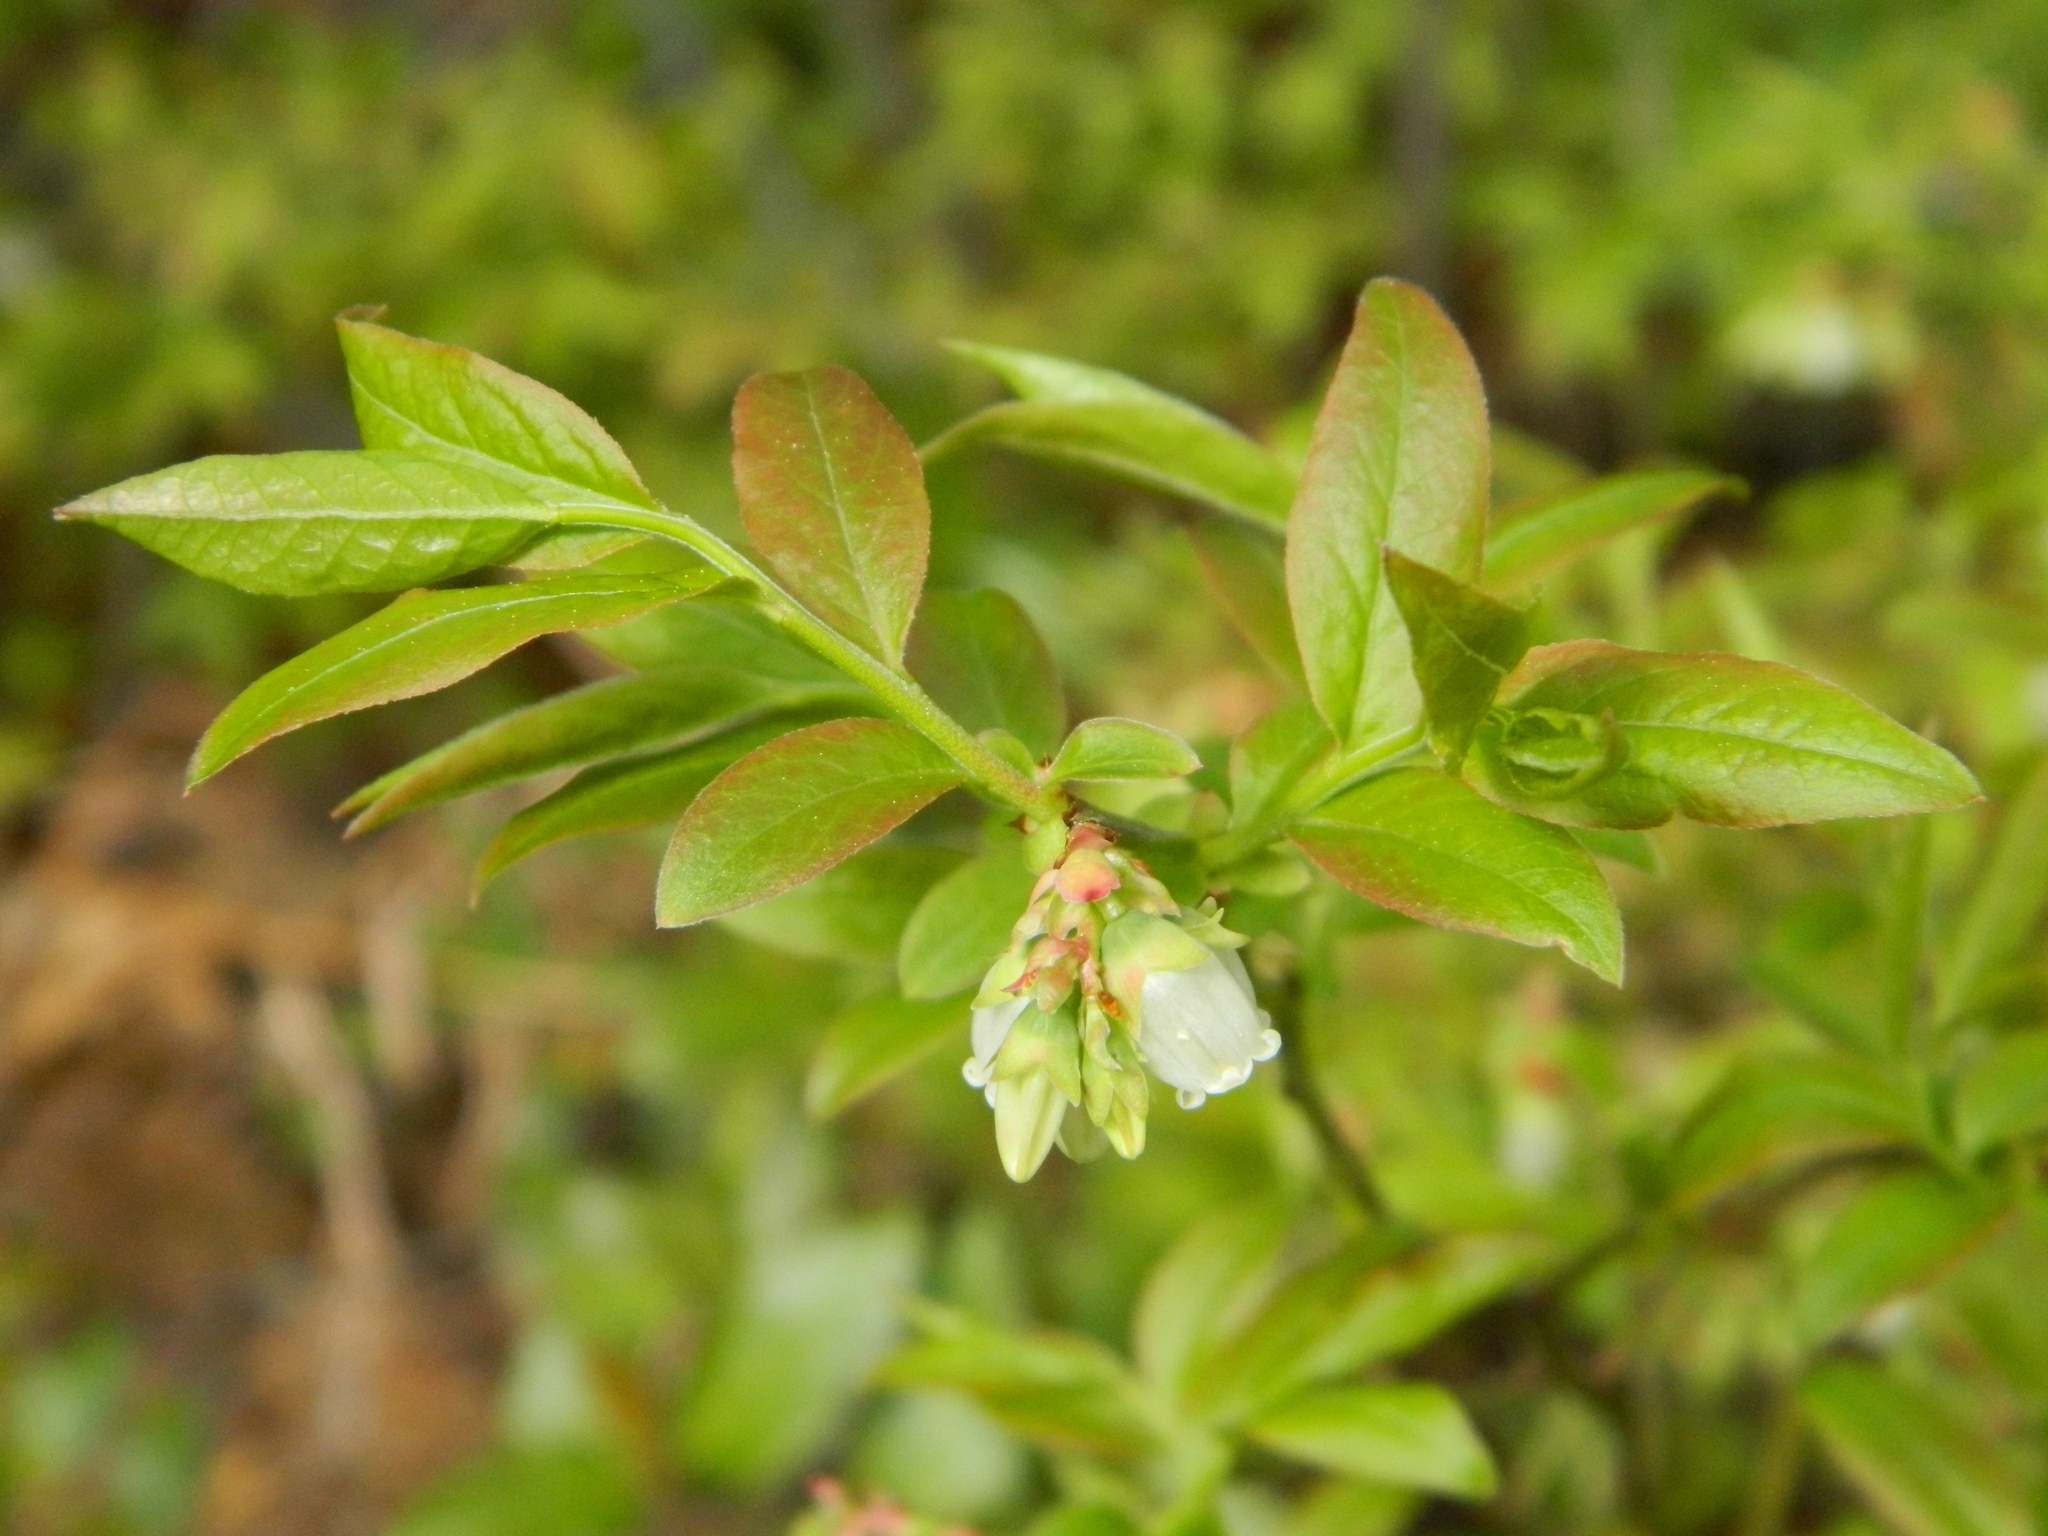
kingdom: Plantae
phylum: Tracheophyta
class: Magnoliopsida
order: Ericales
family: Ericaceae
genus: Vaccinium
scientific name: Vaccinium angustifolium
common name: Early lowbush blueberry
